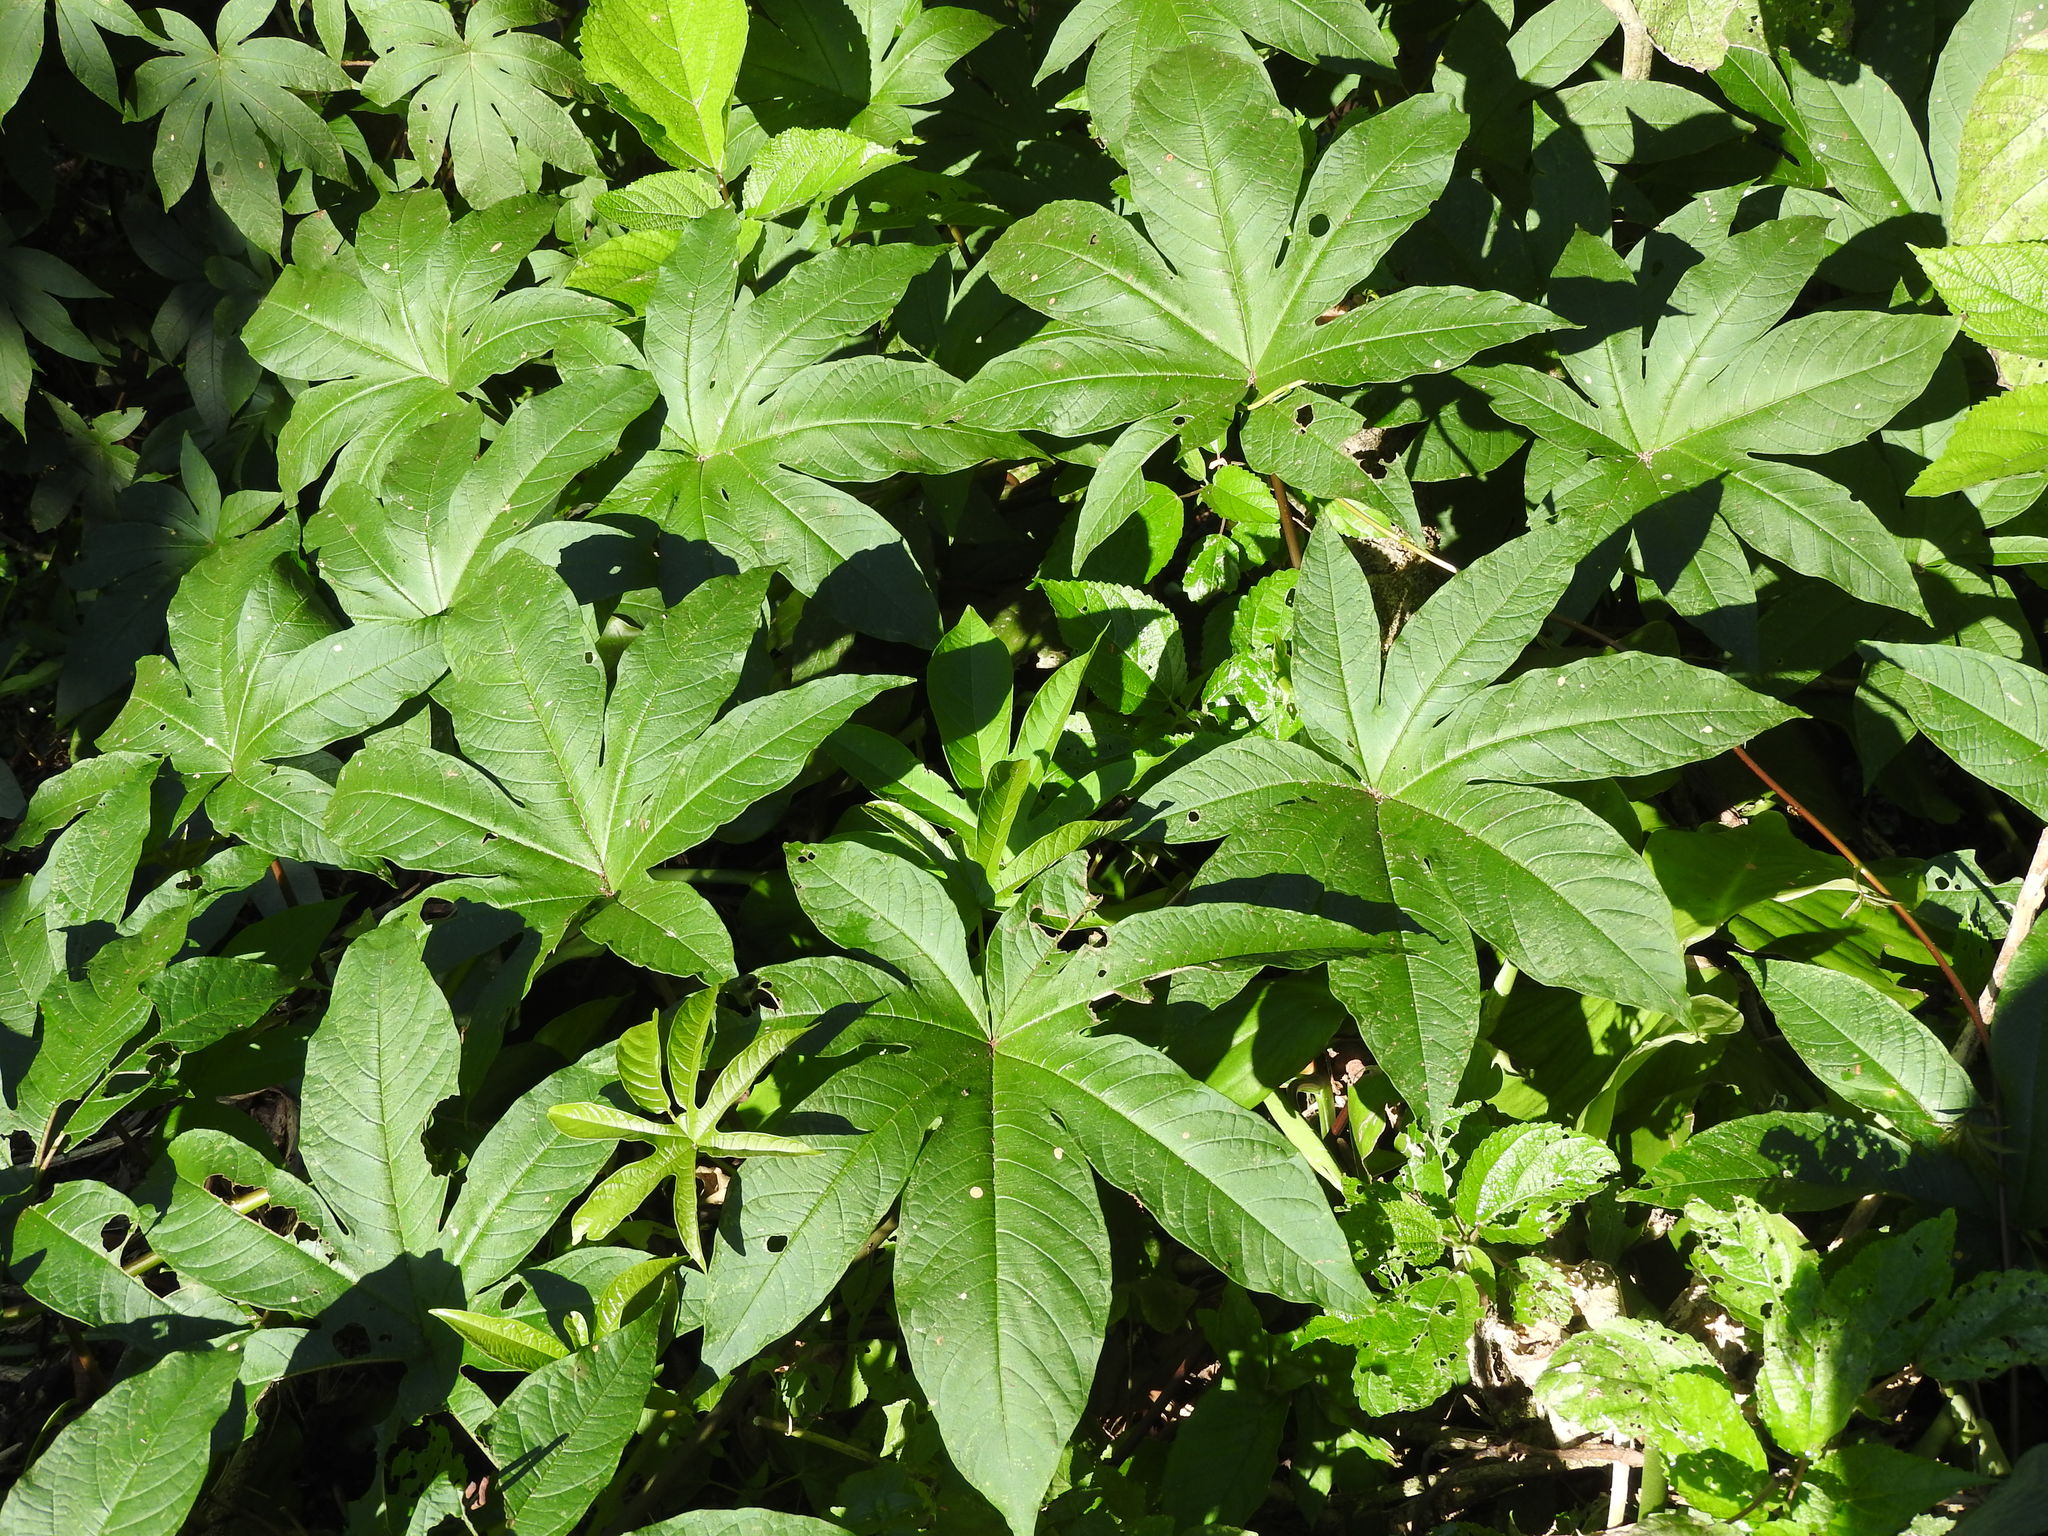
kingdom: Plantae
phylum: Tracheophyta
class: Magnoliopsida
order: Solanales
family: Convolvulaceae
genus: Distimake
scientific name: Distimake tuberosus
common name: Spanish arborvine
